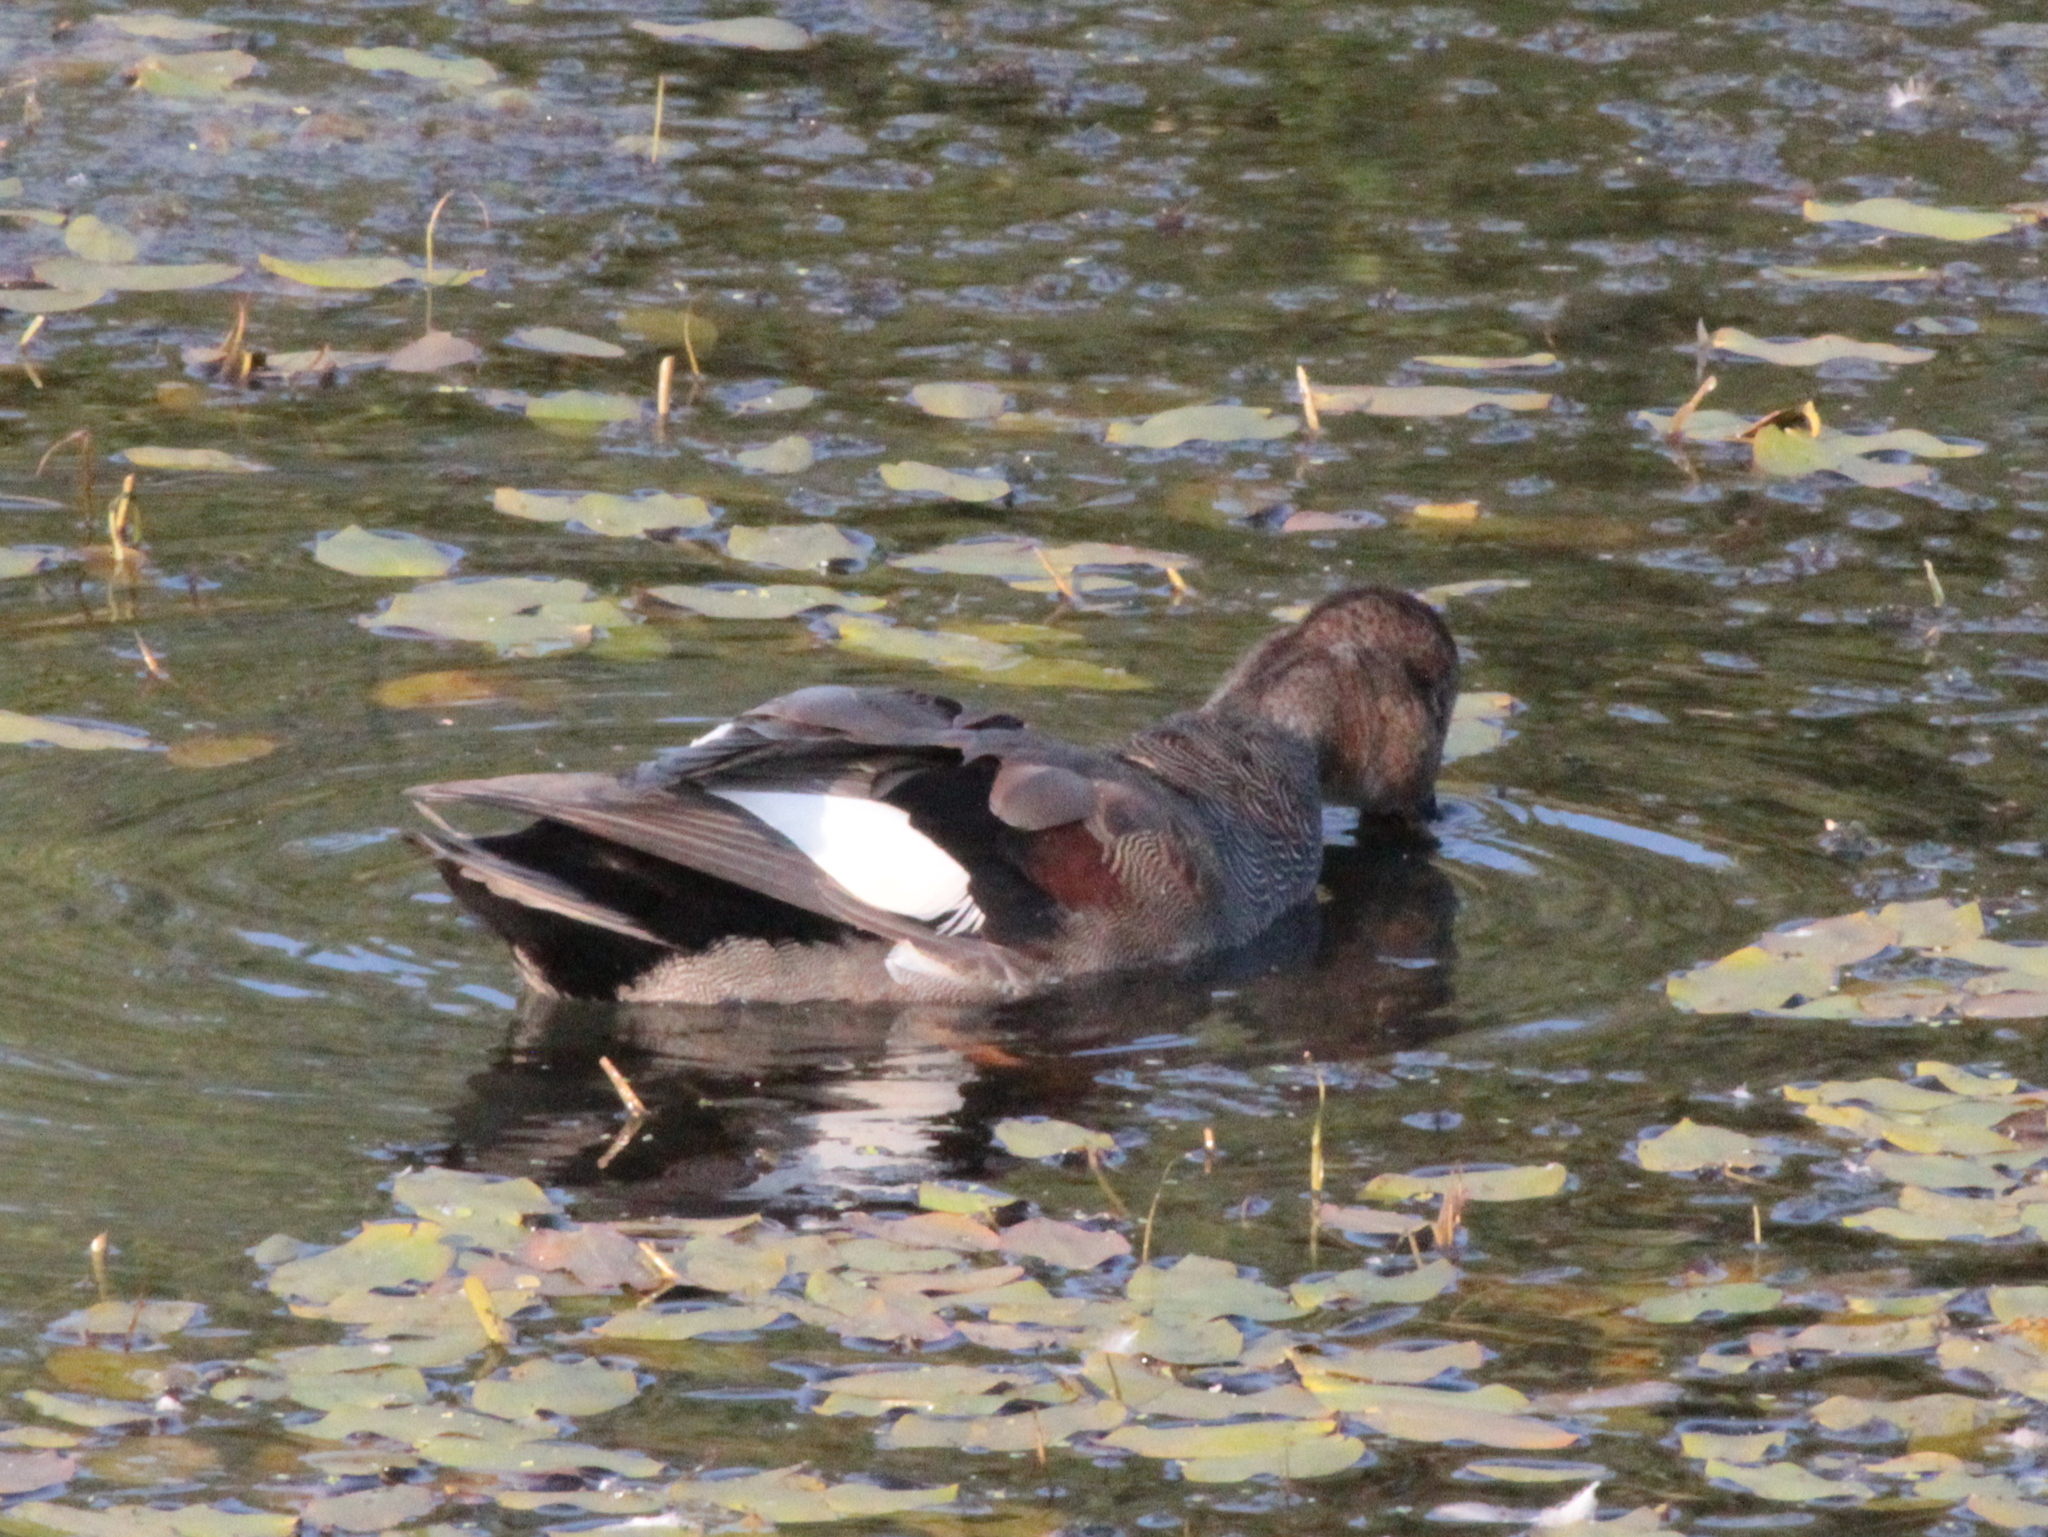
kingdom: Animalia
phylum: Chordata
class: Aves
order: Anseriformes
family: Anatidae
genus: Mareca
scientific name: Mareca strepera
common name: Gadwall
